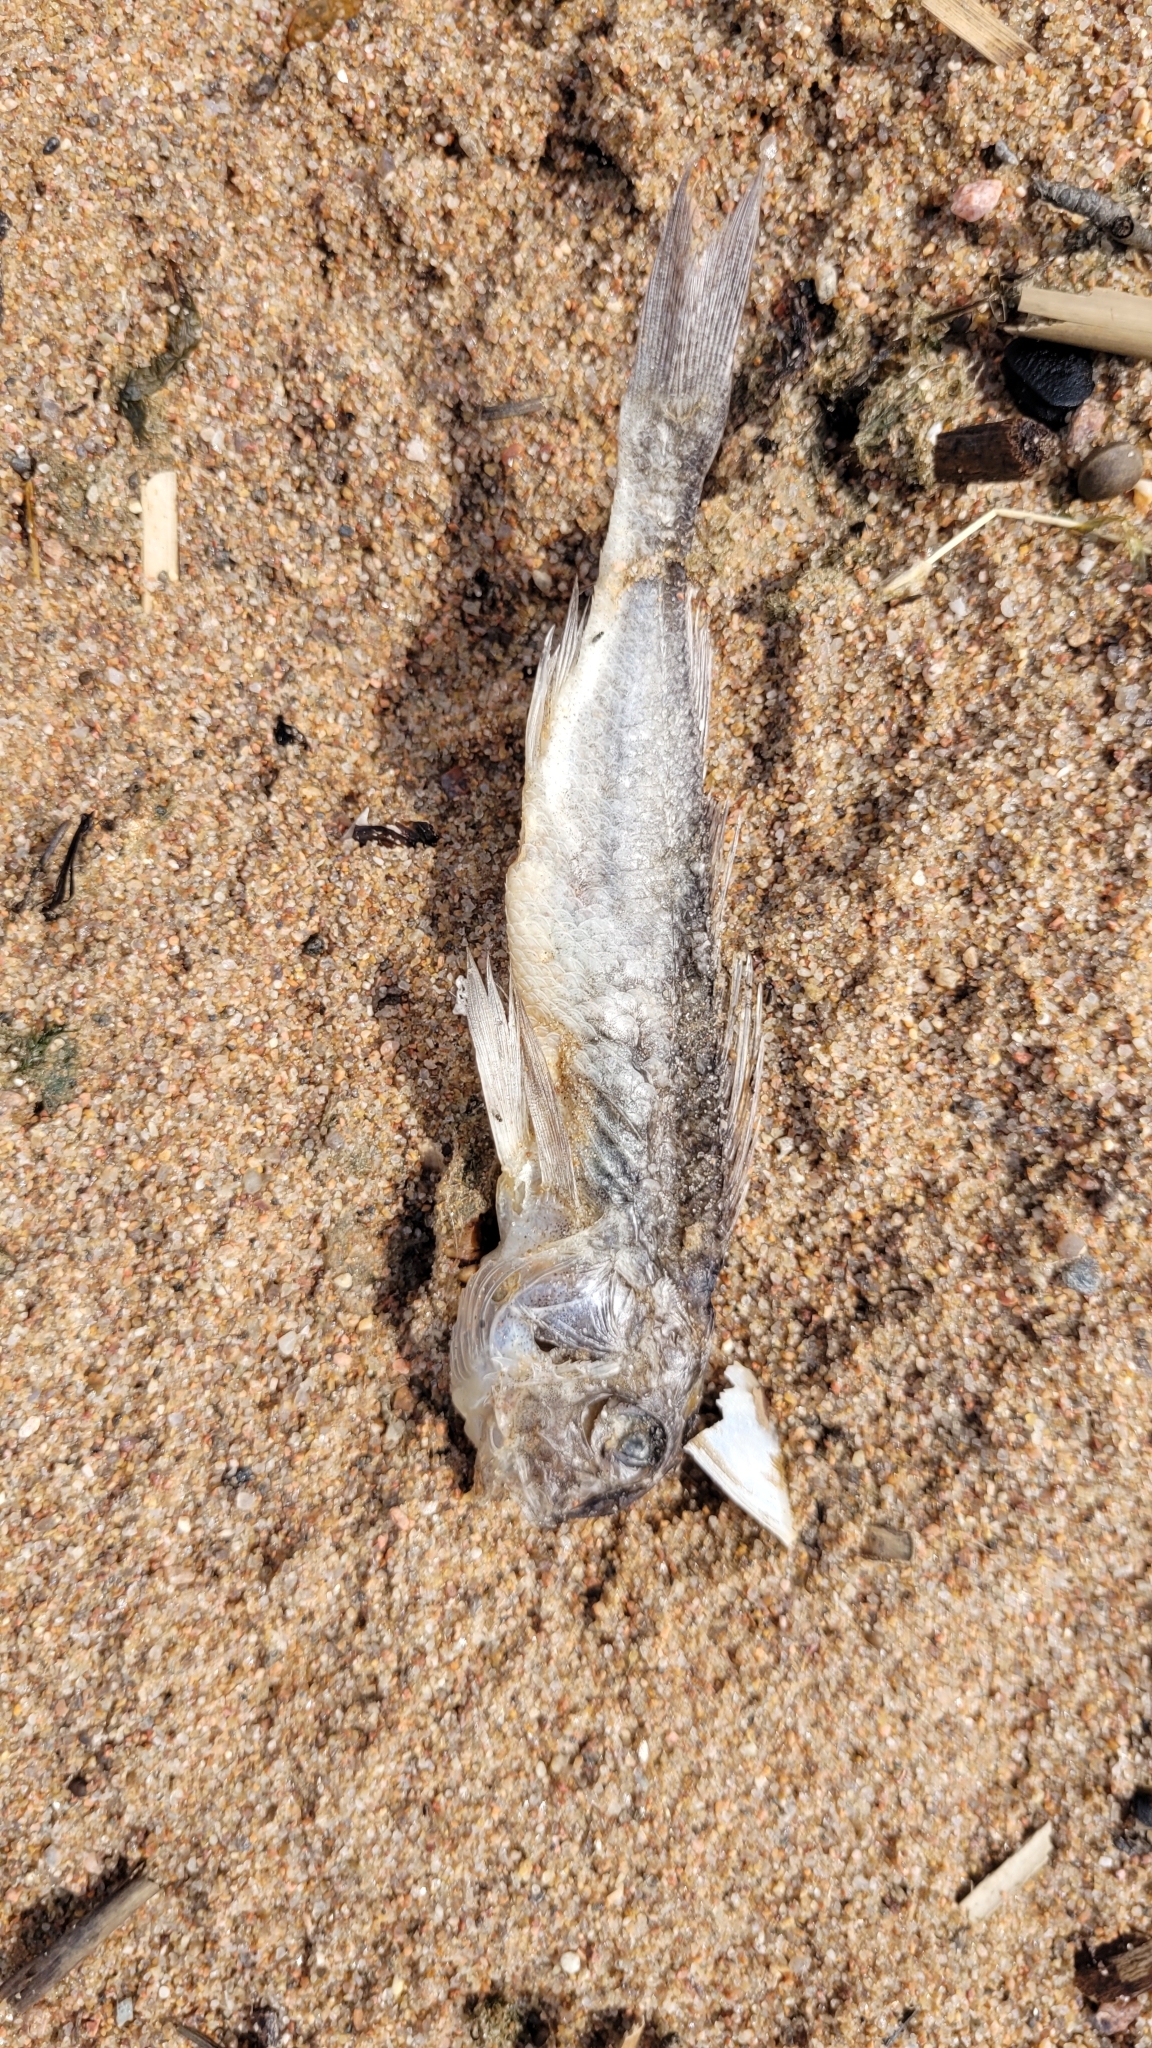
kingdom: Animalia
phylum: Chordata
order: Perciformes
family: Percidae
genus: Gymnocephalus
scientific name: Gymnocephalus cernua
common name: Ruffe
